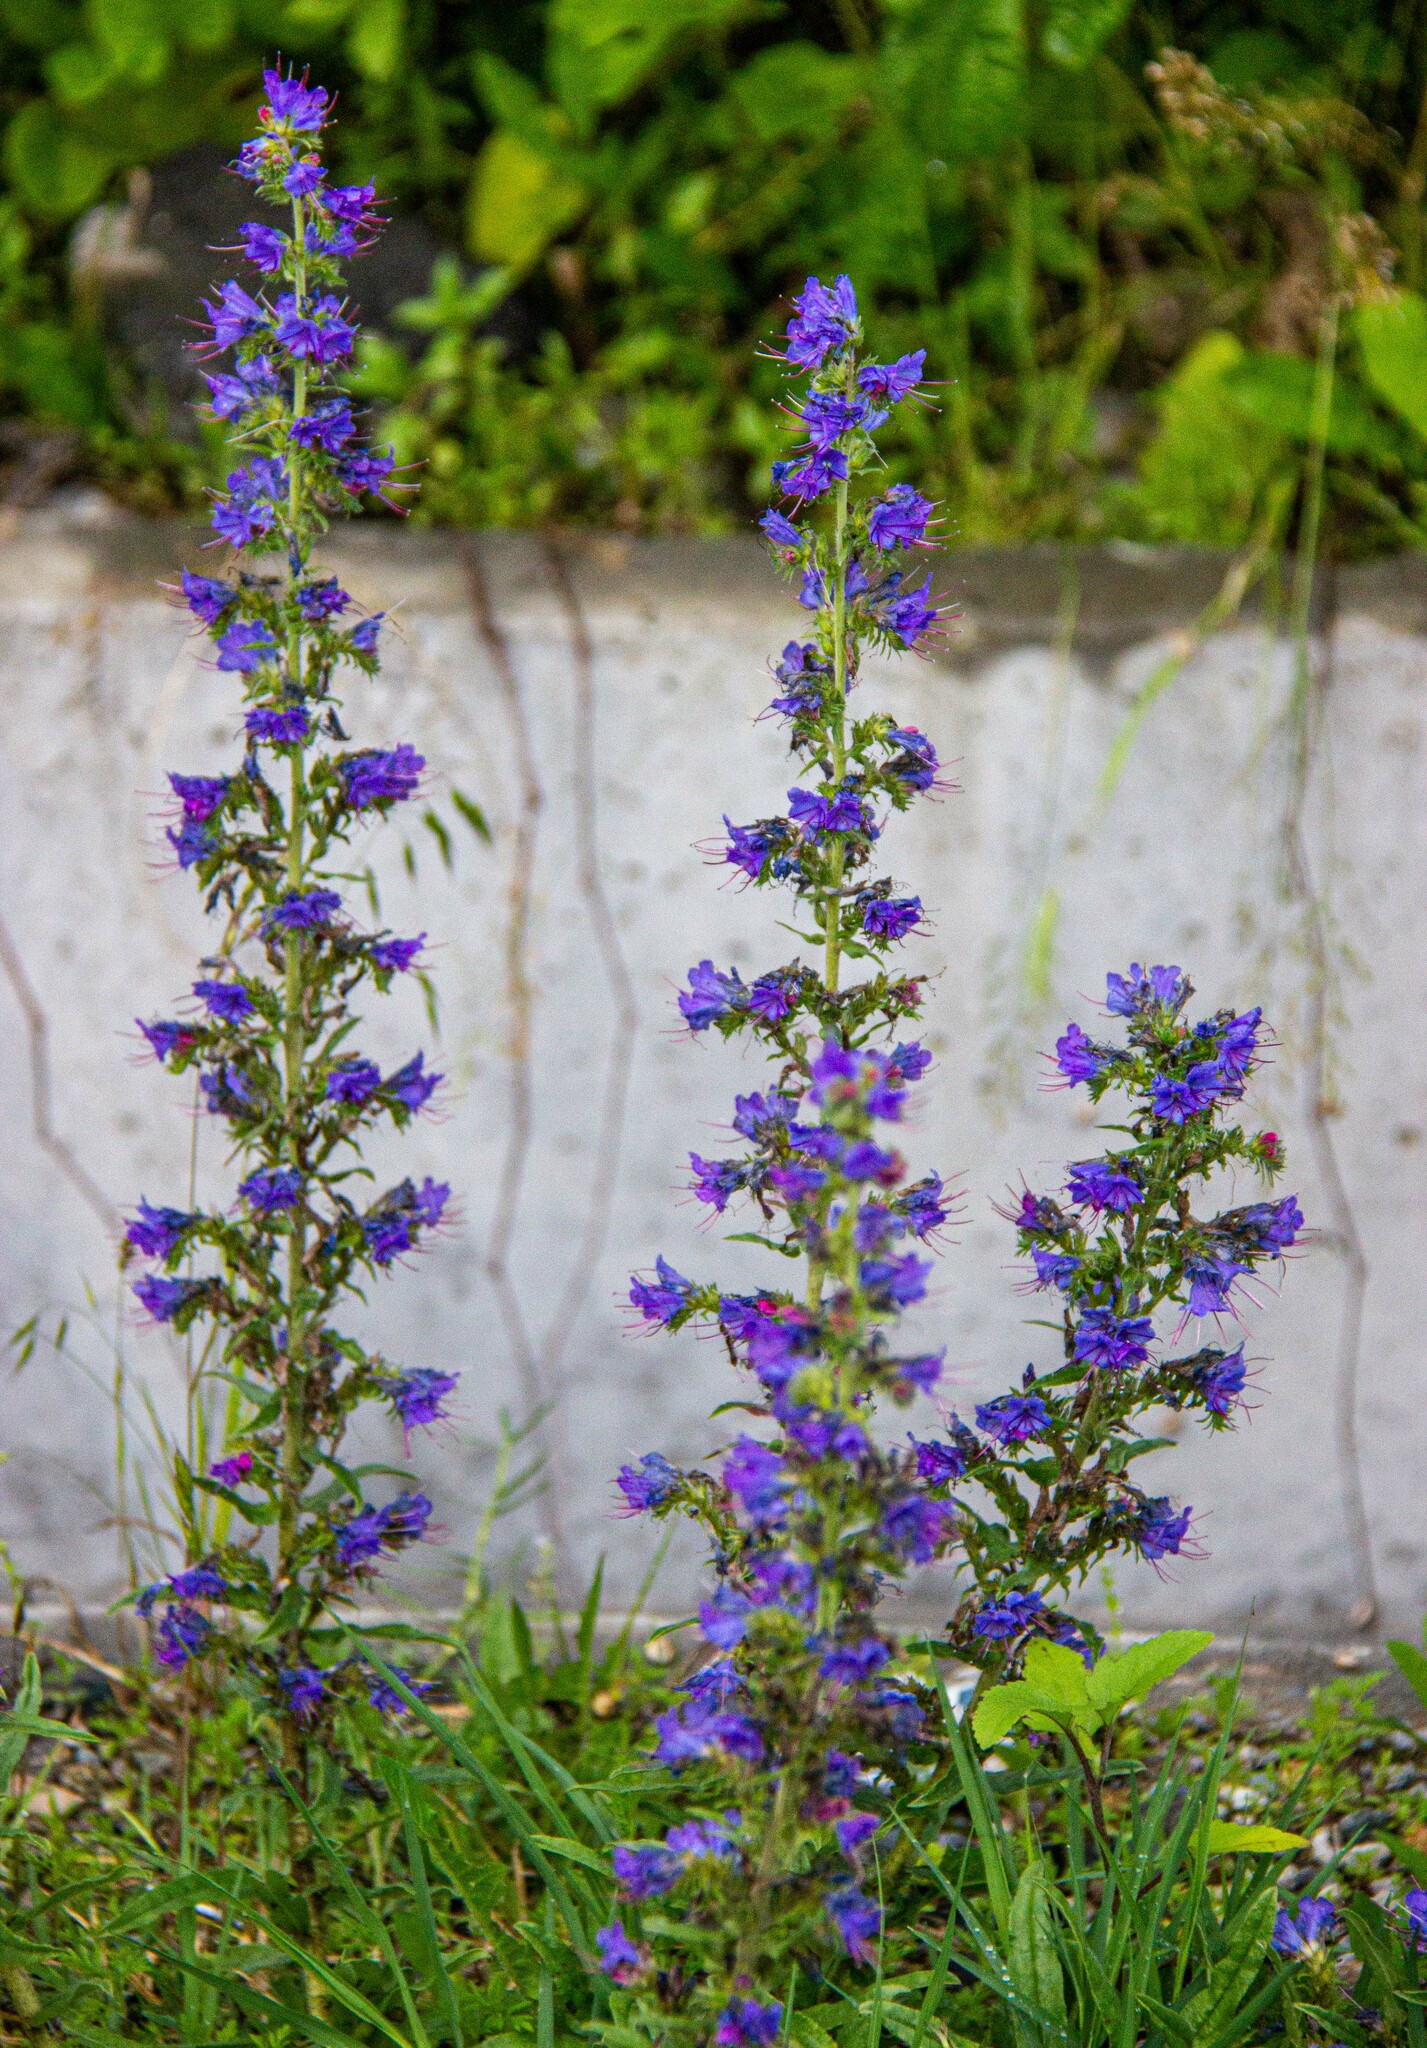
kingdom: Plantae
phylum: Tracheophyta
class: Magnoliopsida
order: Boraginales
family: Boraginaceae
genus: Echium
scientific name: Echium vulgare
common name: Common viper's bugloss
